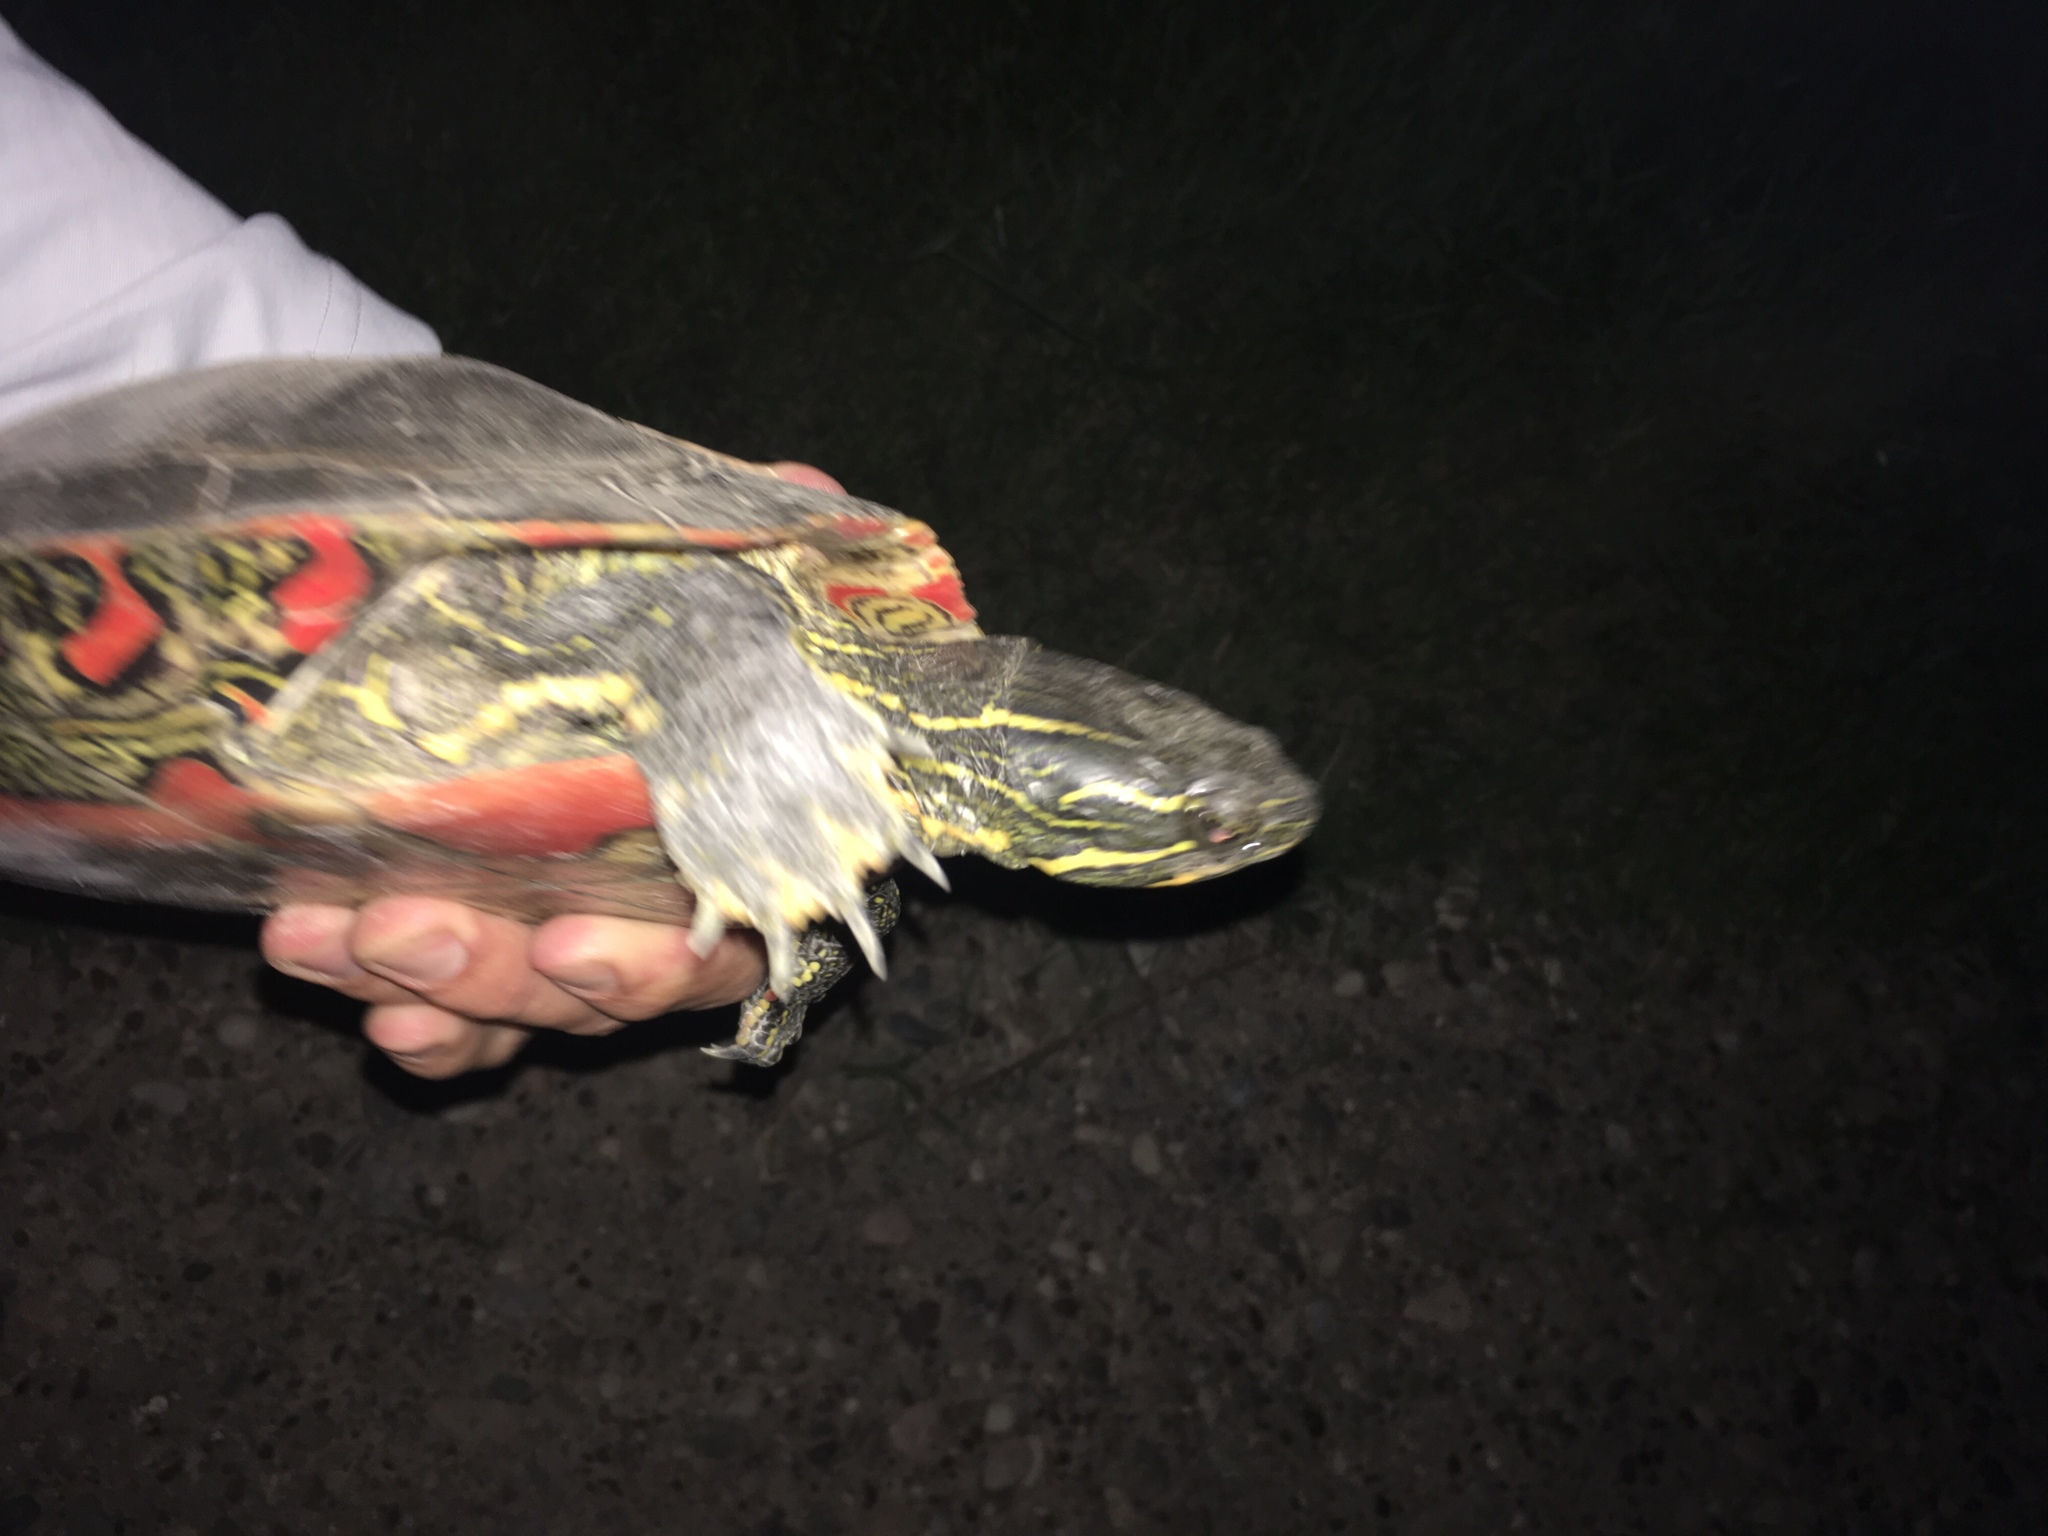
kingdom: Animalia
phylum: Chordata
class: Testudines
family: Emydidae
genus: Chrysemys
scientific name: Chrysemys picta
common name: Painted turtle
